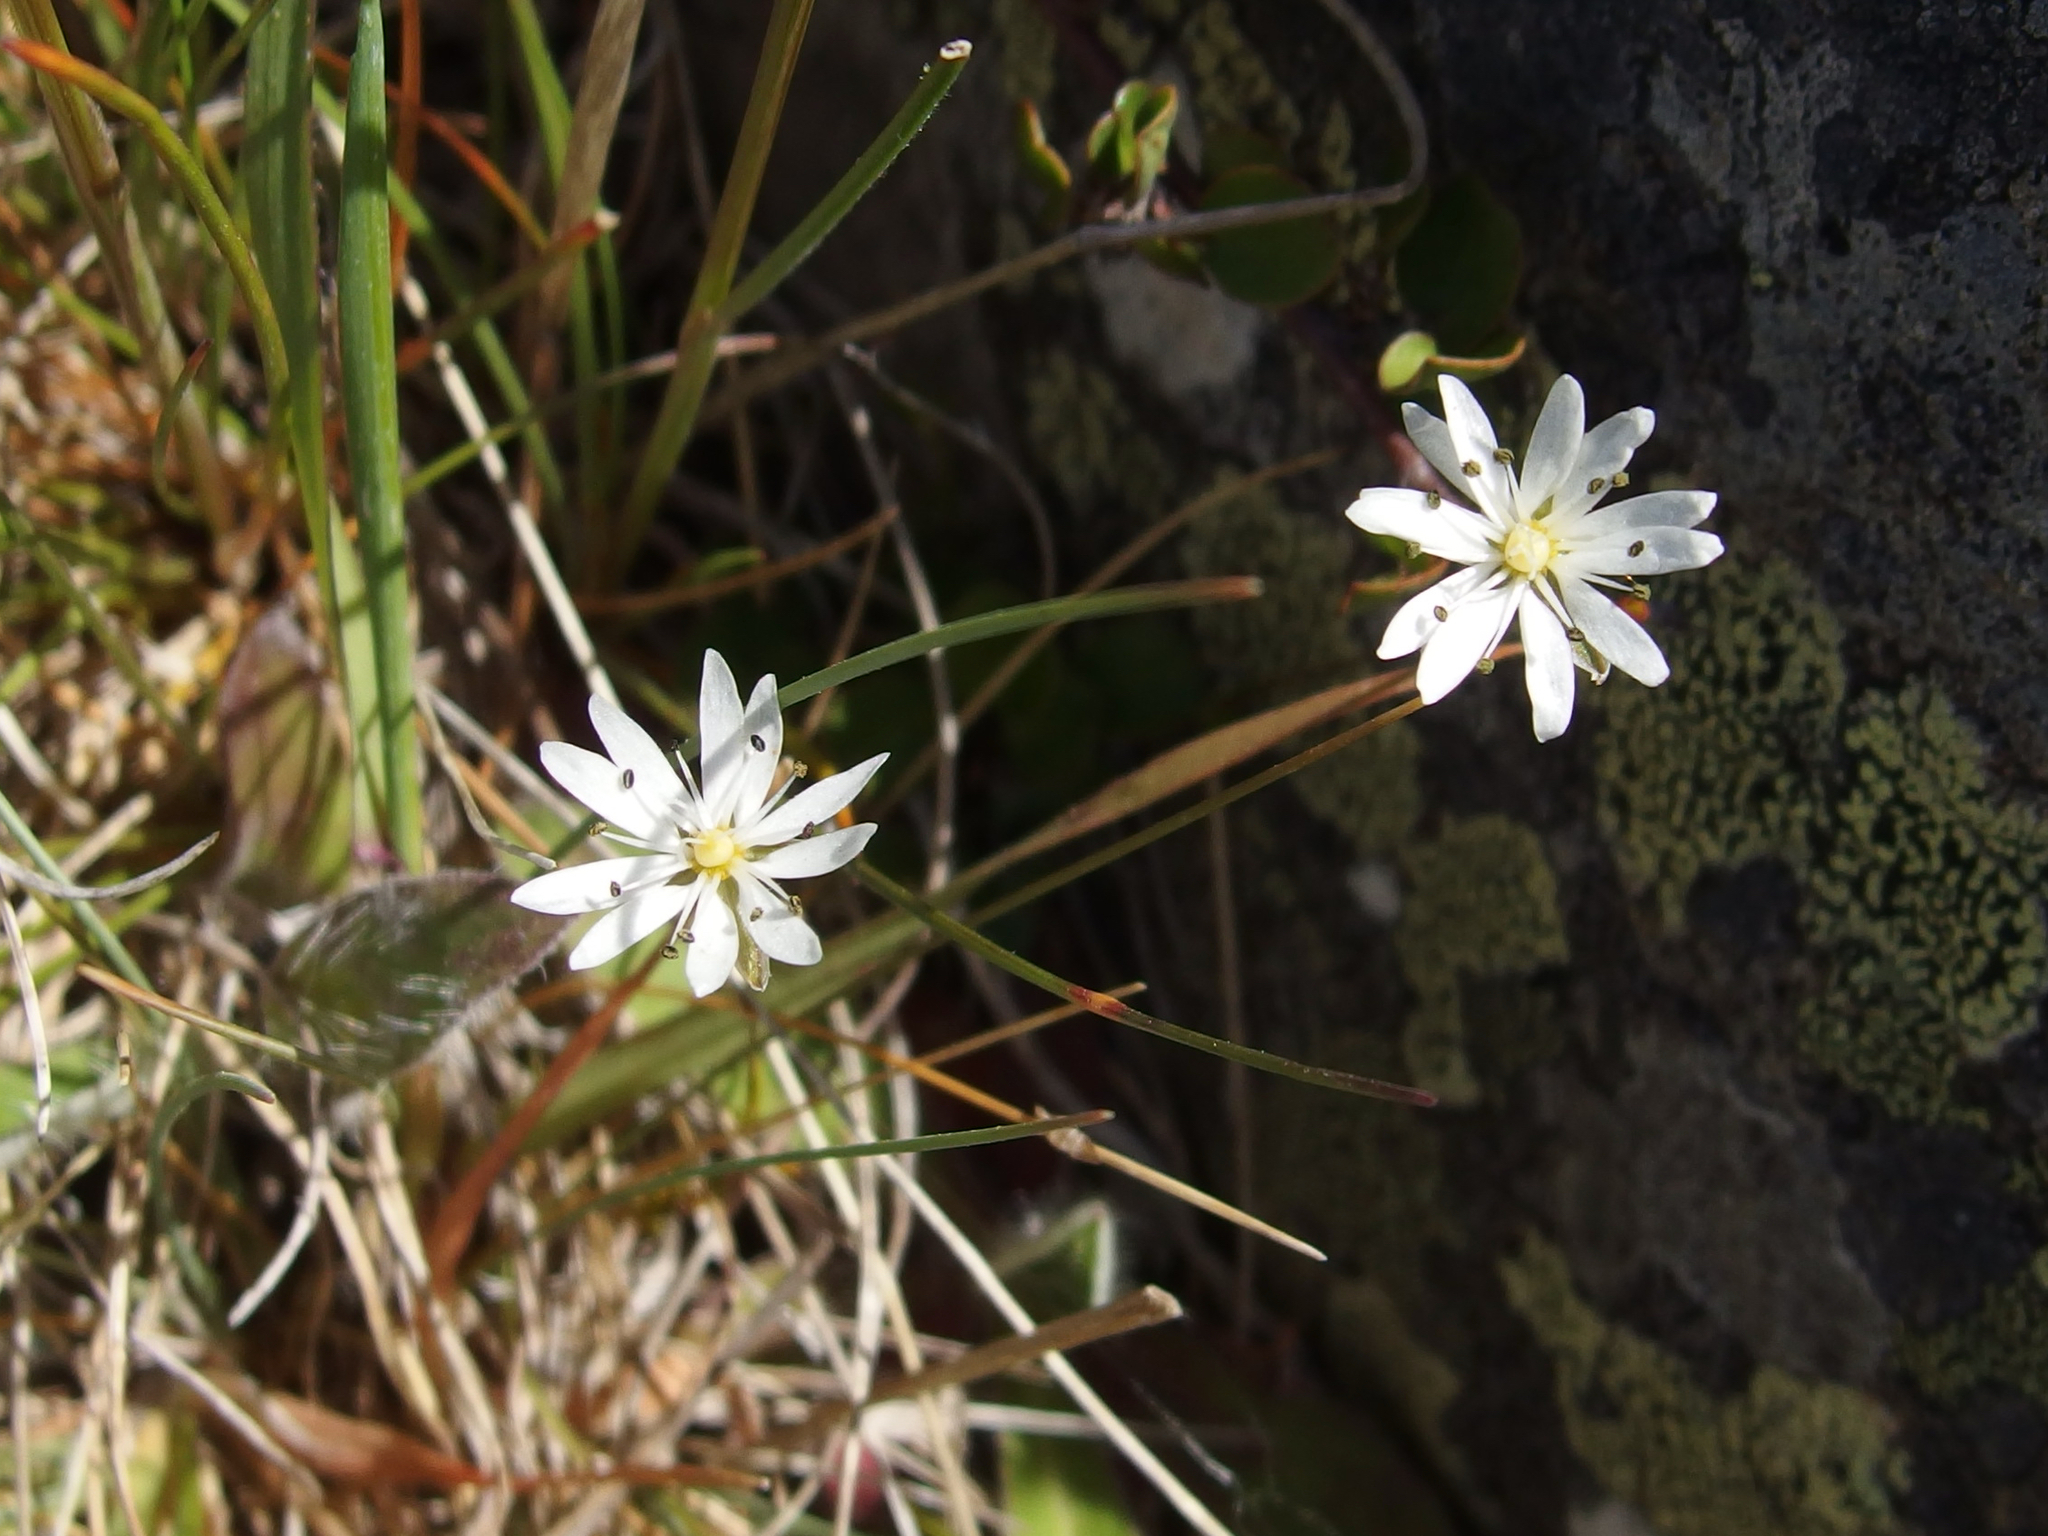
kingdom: Plantae
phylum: Tracheophyta
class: Magnoliopsida
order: Caryophyllales
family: Caryophyllaceae
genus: Stellaria
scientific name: Stellaria gracilenta
